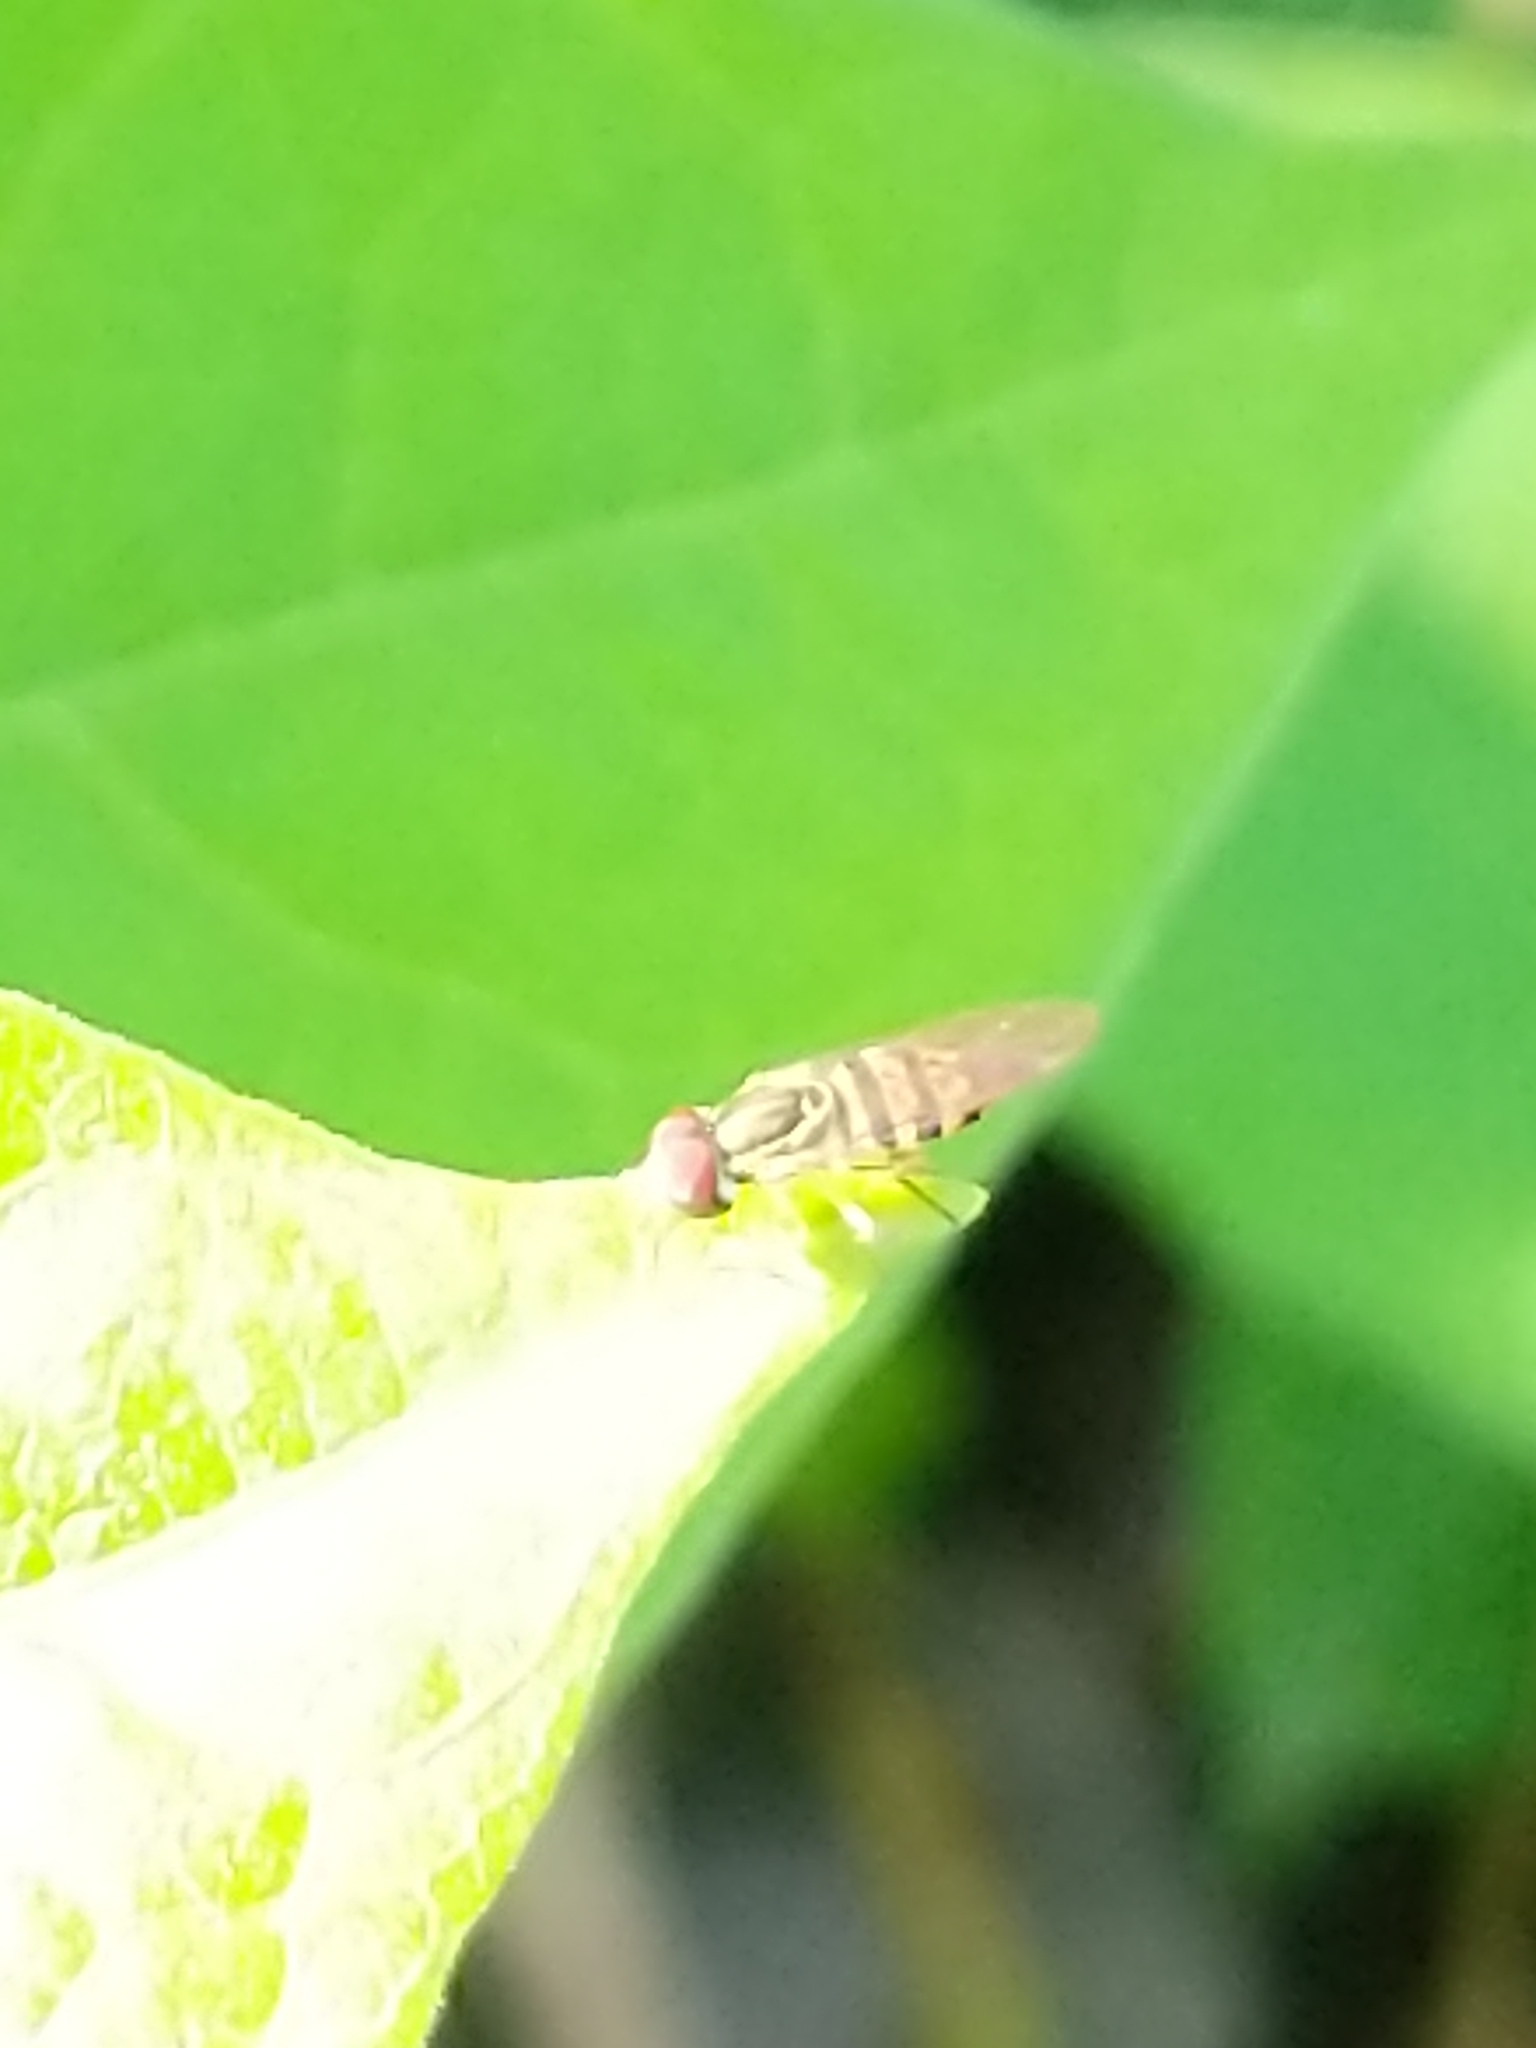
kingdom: Animalia
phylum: Arthropoda
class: Insecta
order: Diptera
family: Syrphidae
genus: Toxomerus
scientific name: Toxomerus geminatus
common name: Eastern calligrapher
